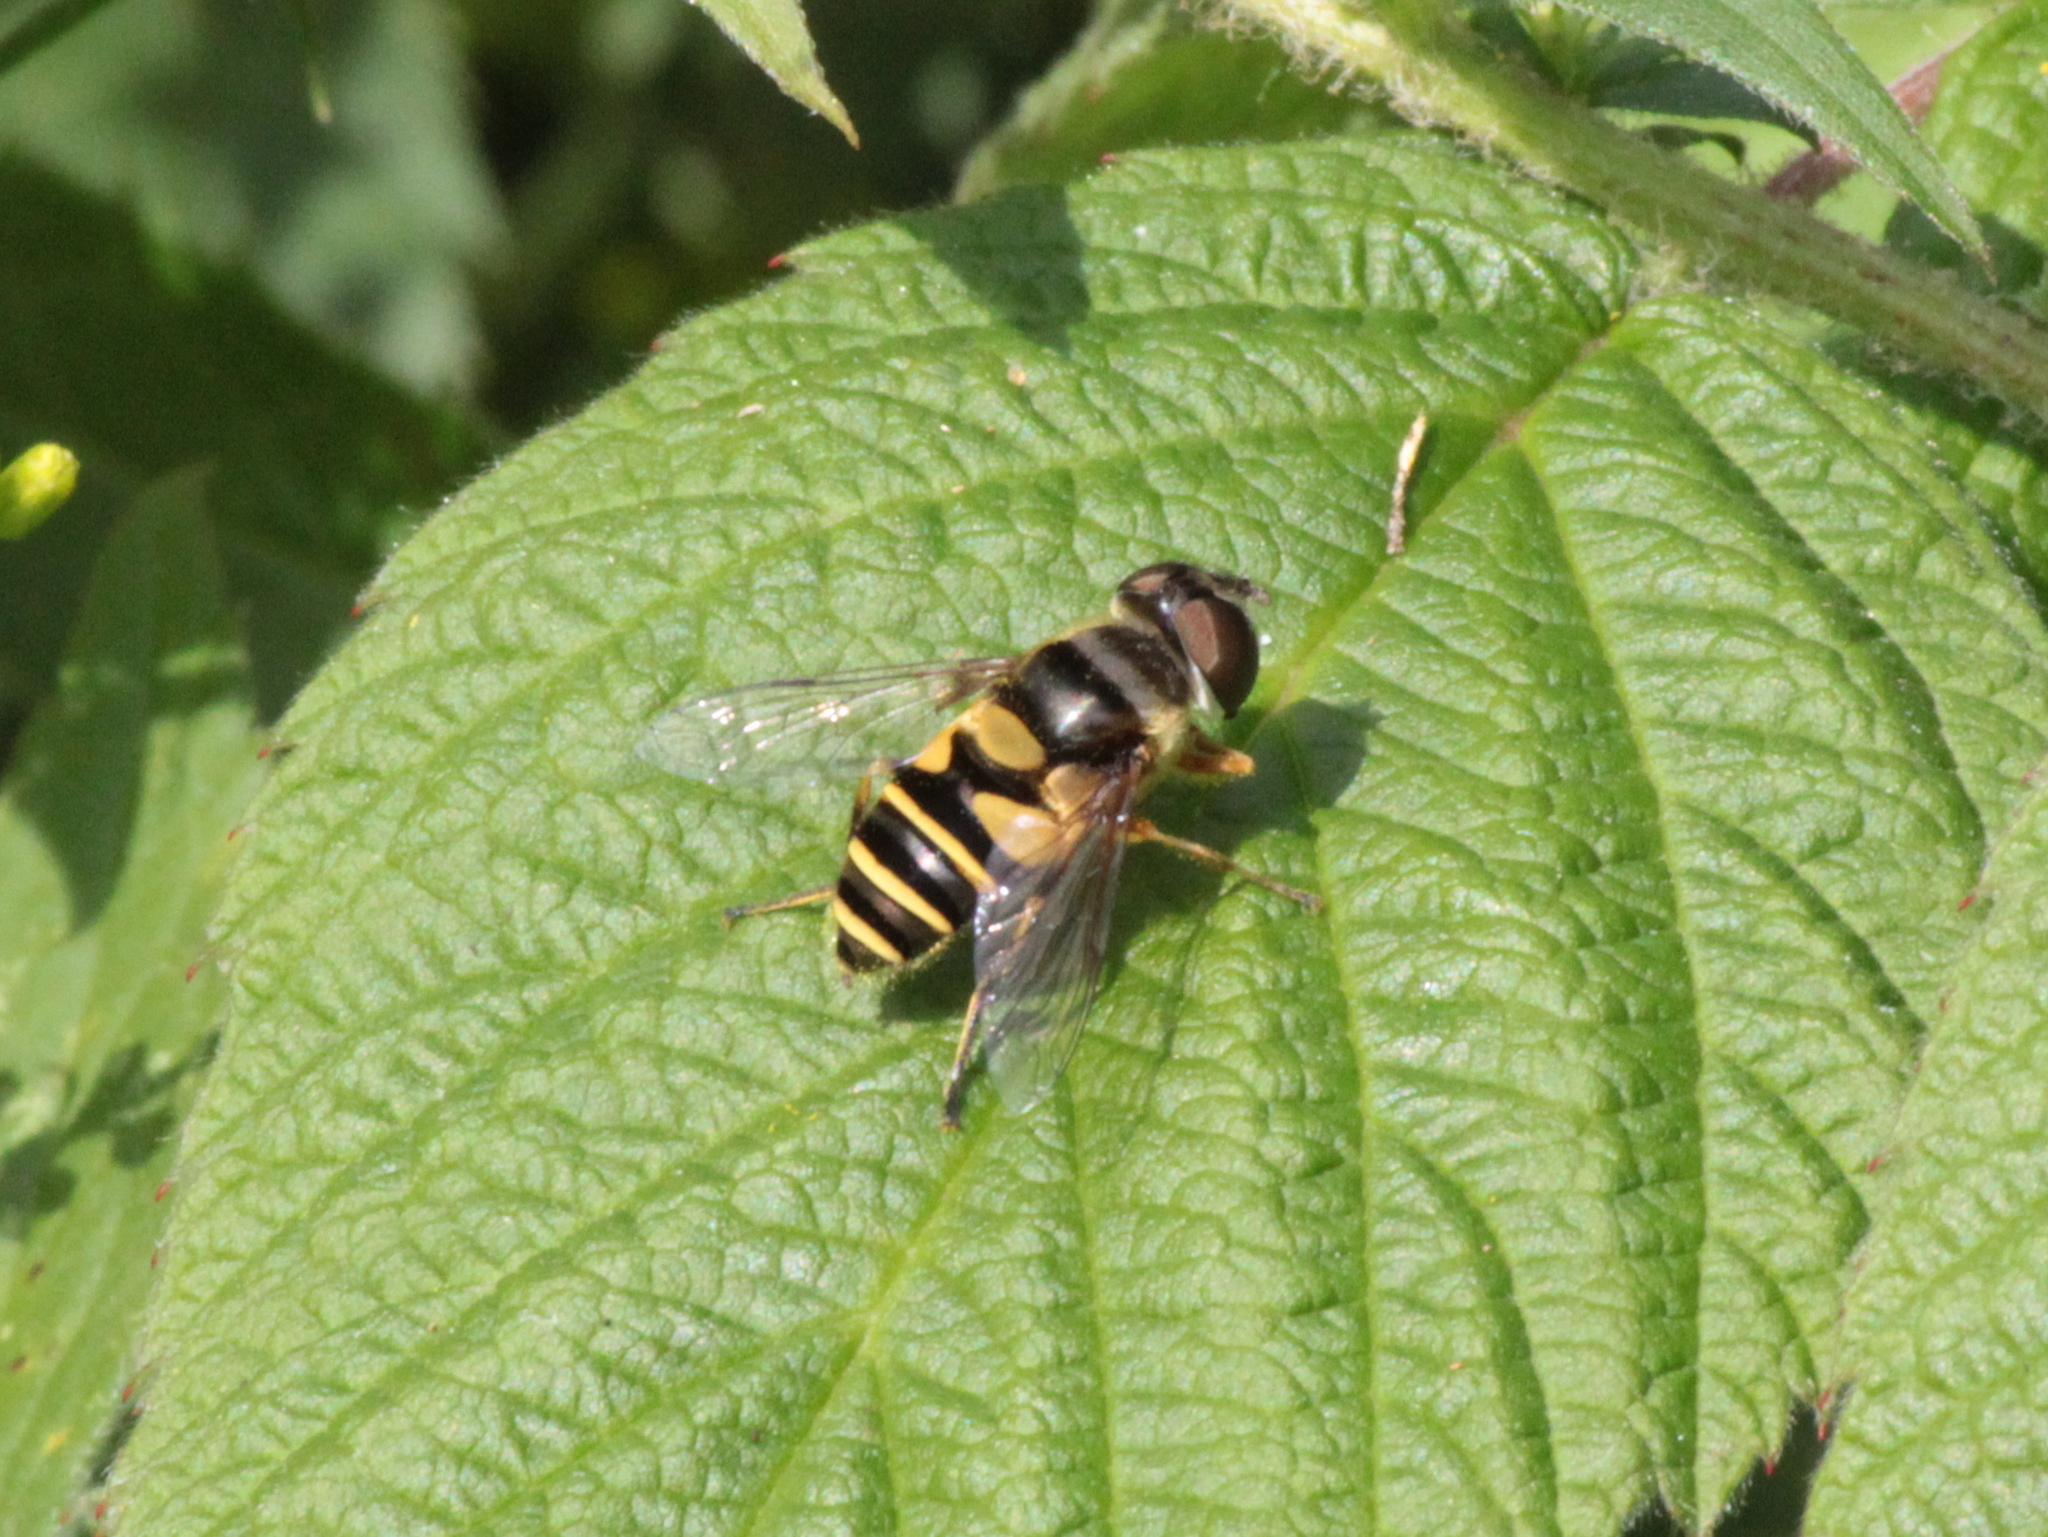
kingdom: Animalia
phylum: Arthropoda
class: Insecta
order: Diptera
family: Syrphidae
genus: Eristalis
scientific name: Eristalis transversa
